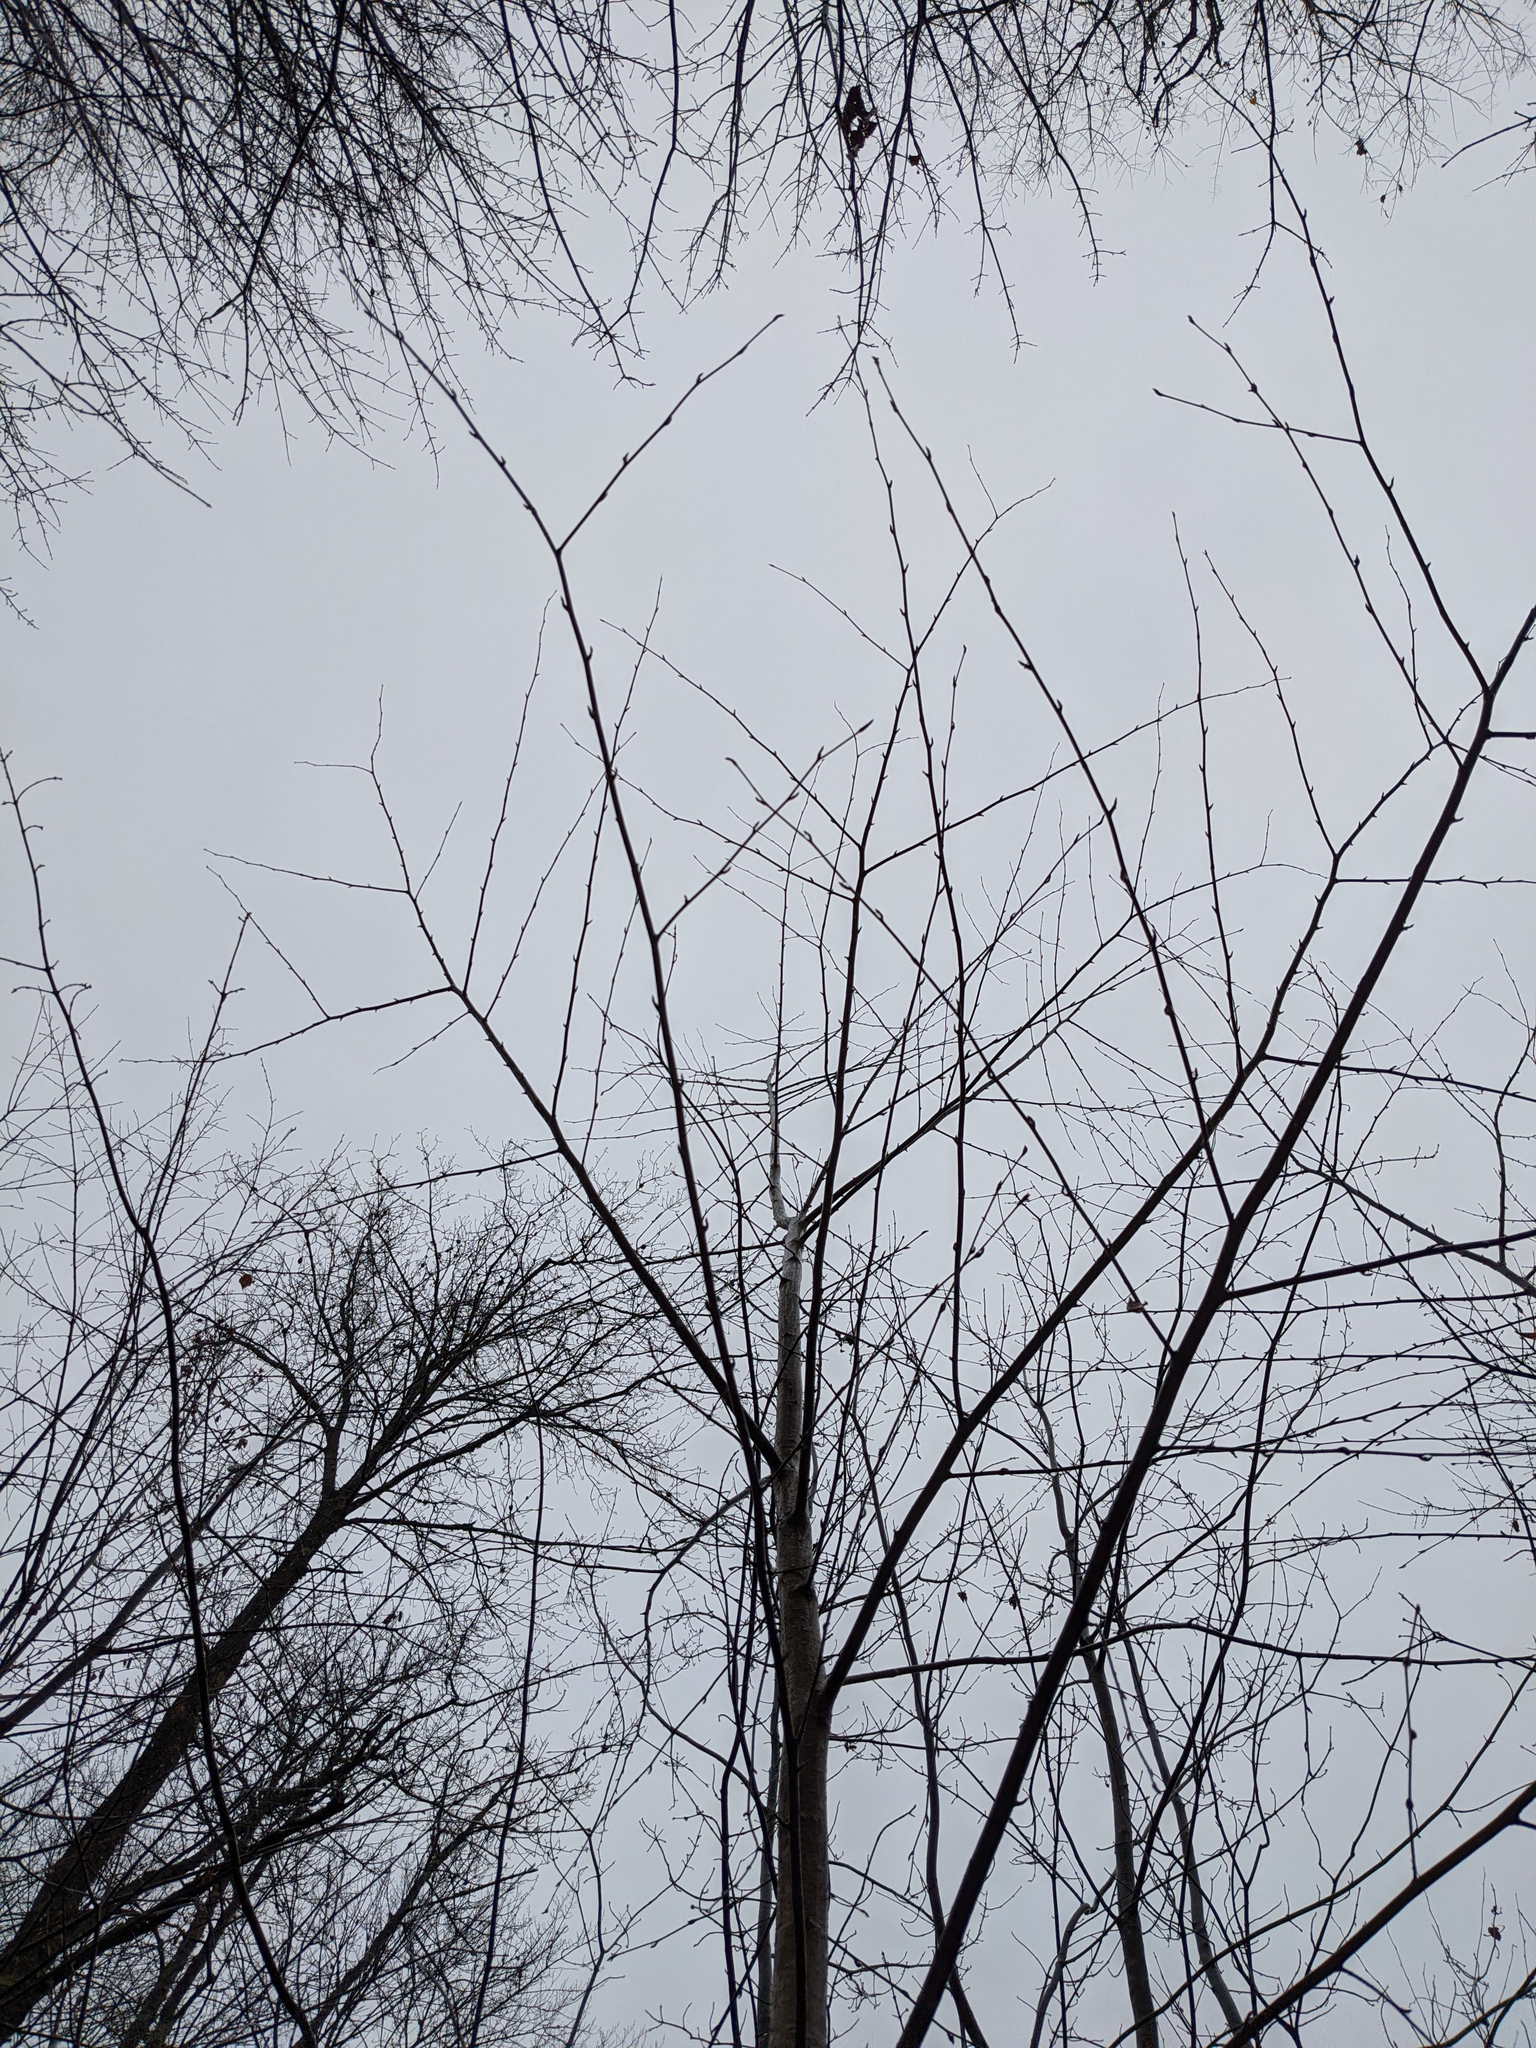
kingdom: Plantae
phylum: Tracheophyta
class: Magnoliopsida
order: Fagales
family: Betulaceae
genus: Betula
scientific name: Betula alleghaniensis
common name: Yellow birch
